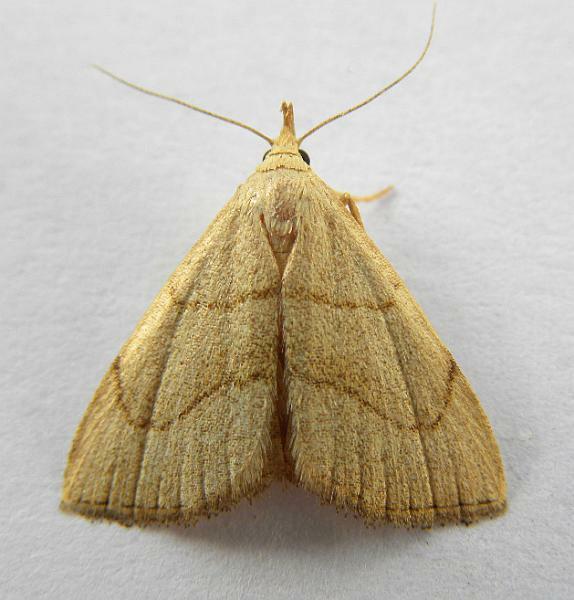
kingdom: Animalia
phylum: Arthropoda
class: Insecta
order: Lepidoptera
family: Erebidae
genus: Macrochilo
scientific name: Macrochilo litophora
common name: Brown-lined owlet
